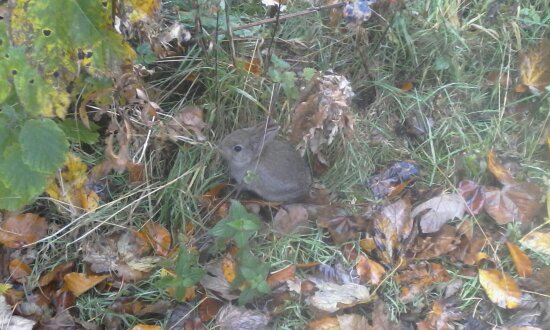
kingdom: Animalia
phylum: Chordata
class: Mammalia
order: Lagomorpha
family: Leporidae
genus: Oryctolagus
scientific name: Oryctolagus cuniculus
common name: European rabbit
